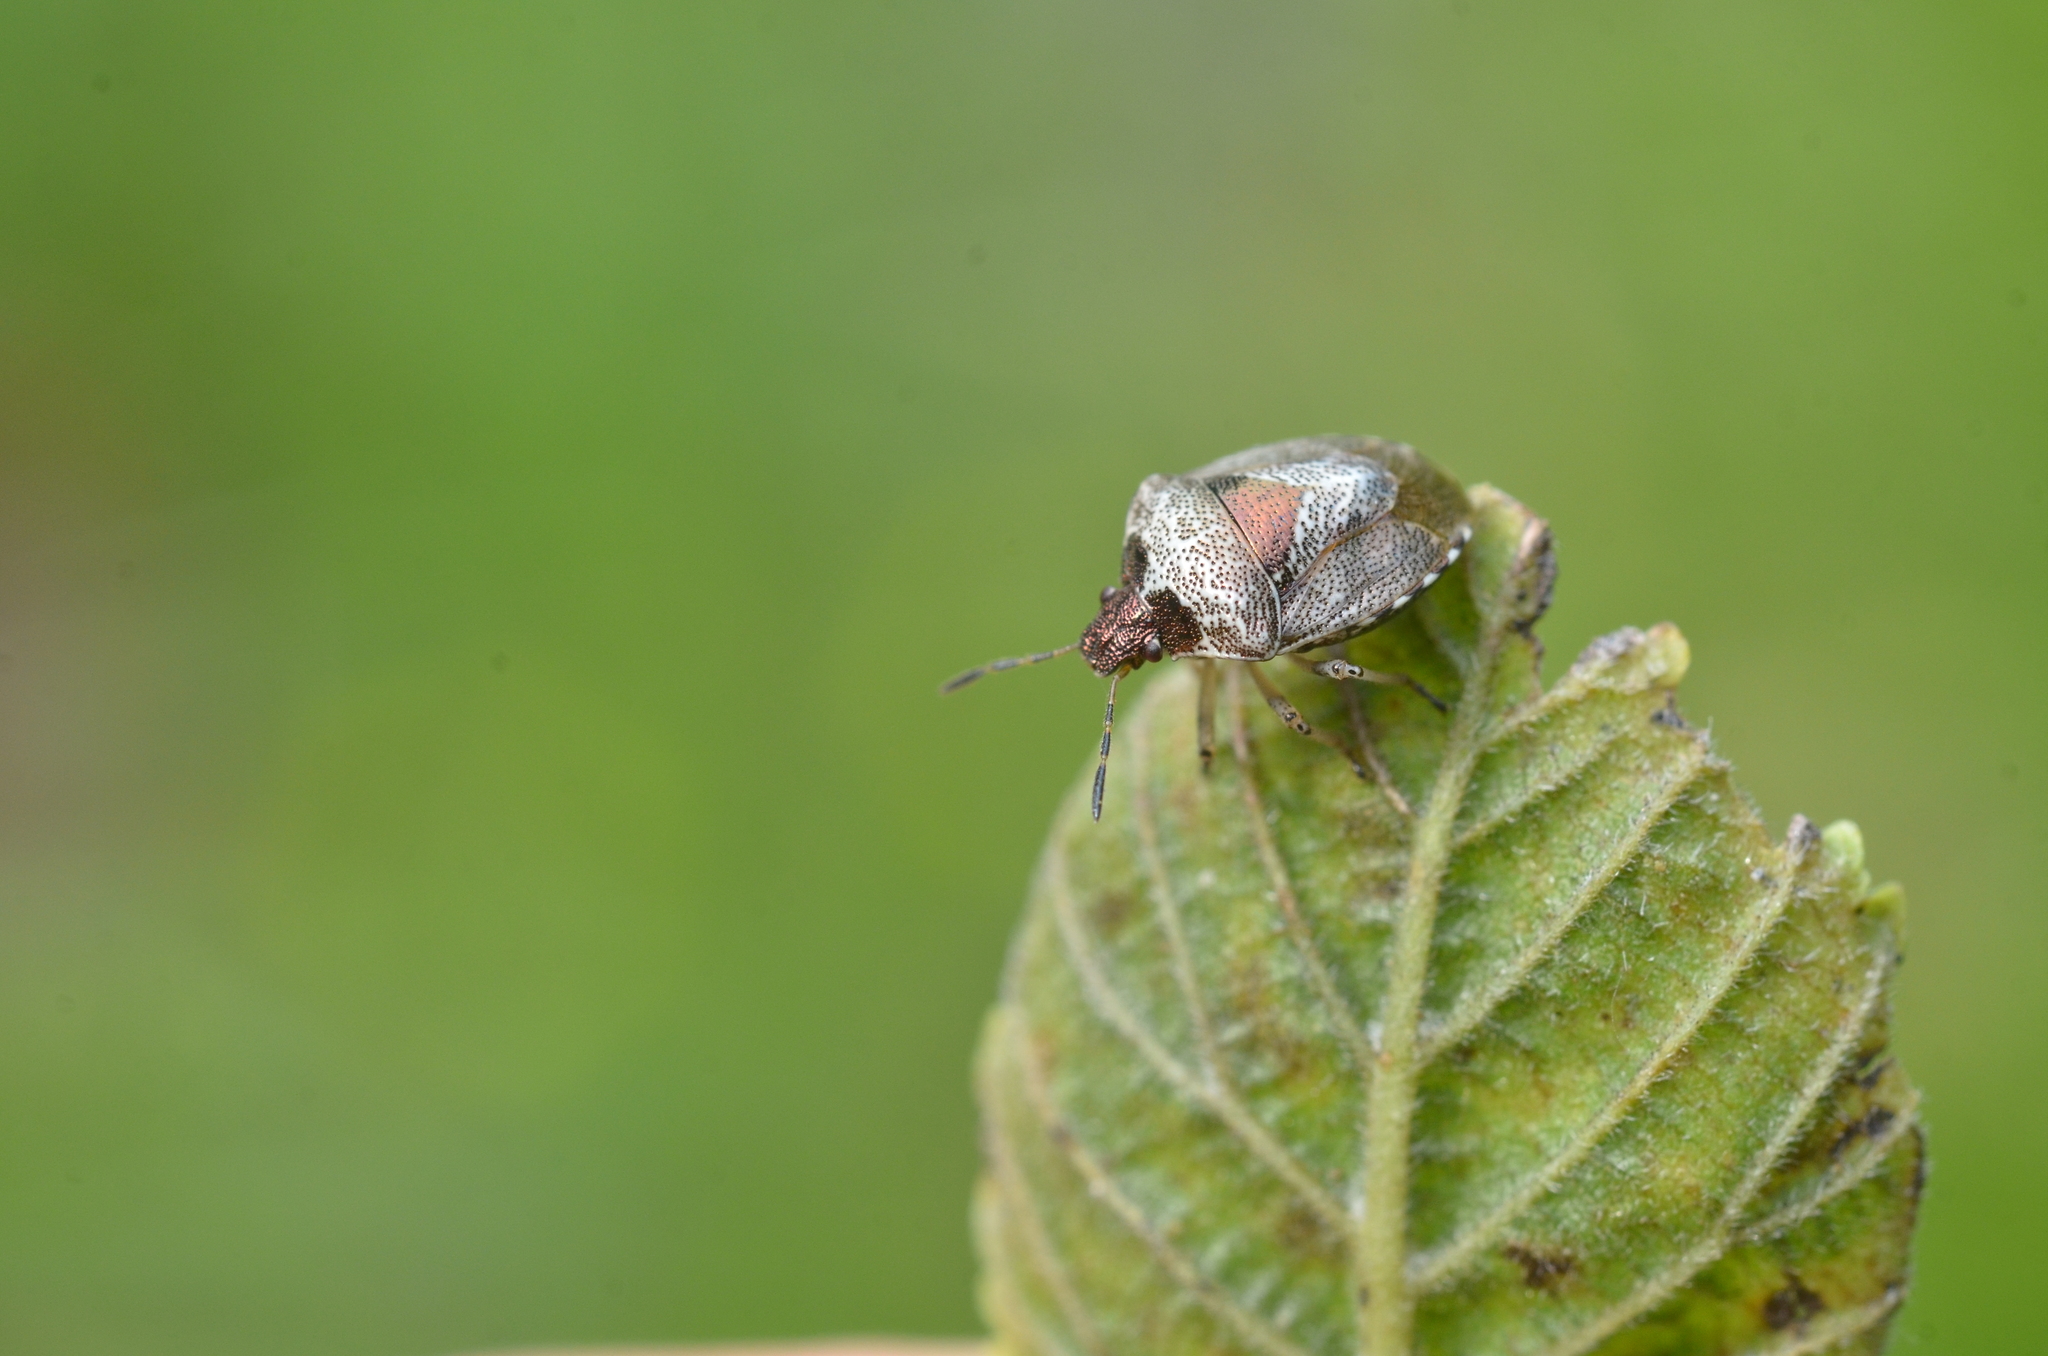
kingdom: Animalia
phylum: Arthropoda
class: Insecta
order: Hemiptera
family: Pentatomidae
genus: Eysarcoris
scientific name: Eysarcoris venustissimus
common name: Woundwort shieldbug
